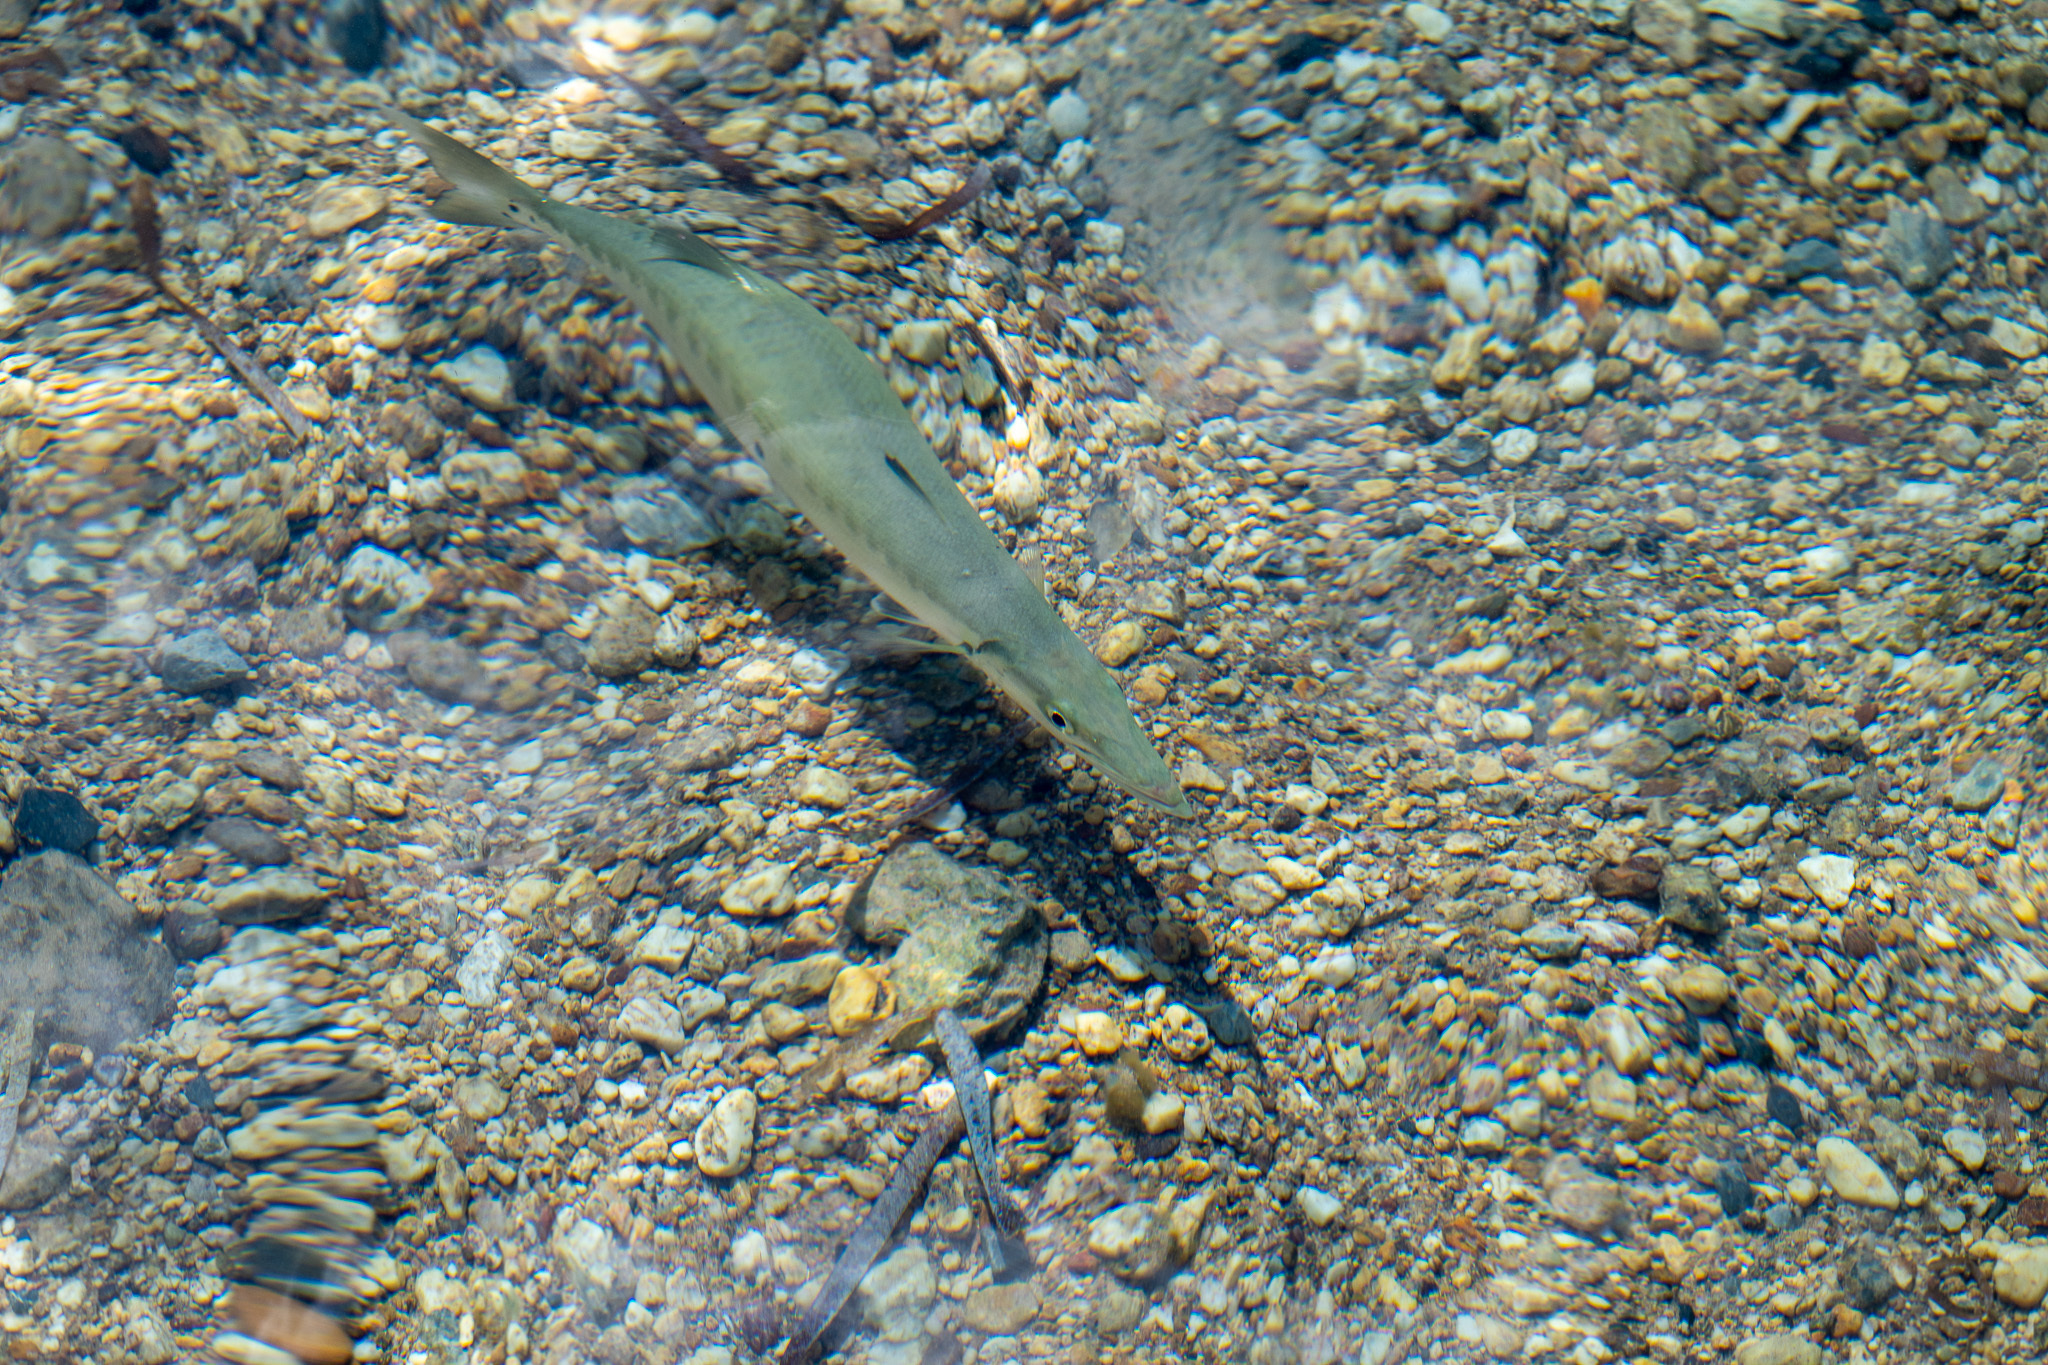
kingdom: Animalia
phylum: Chordata
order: Perciformes
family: Sphyraenidae
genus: Sphyraena
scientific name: Sphyraena barracuda
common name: Great barracuda
